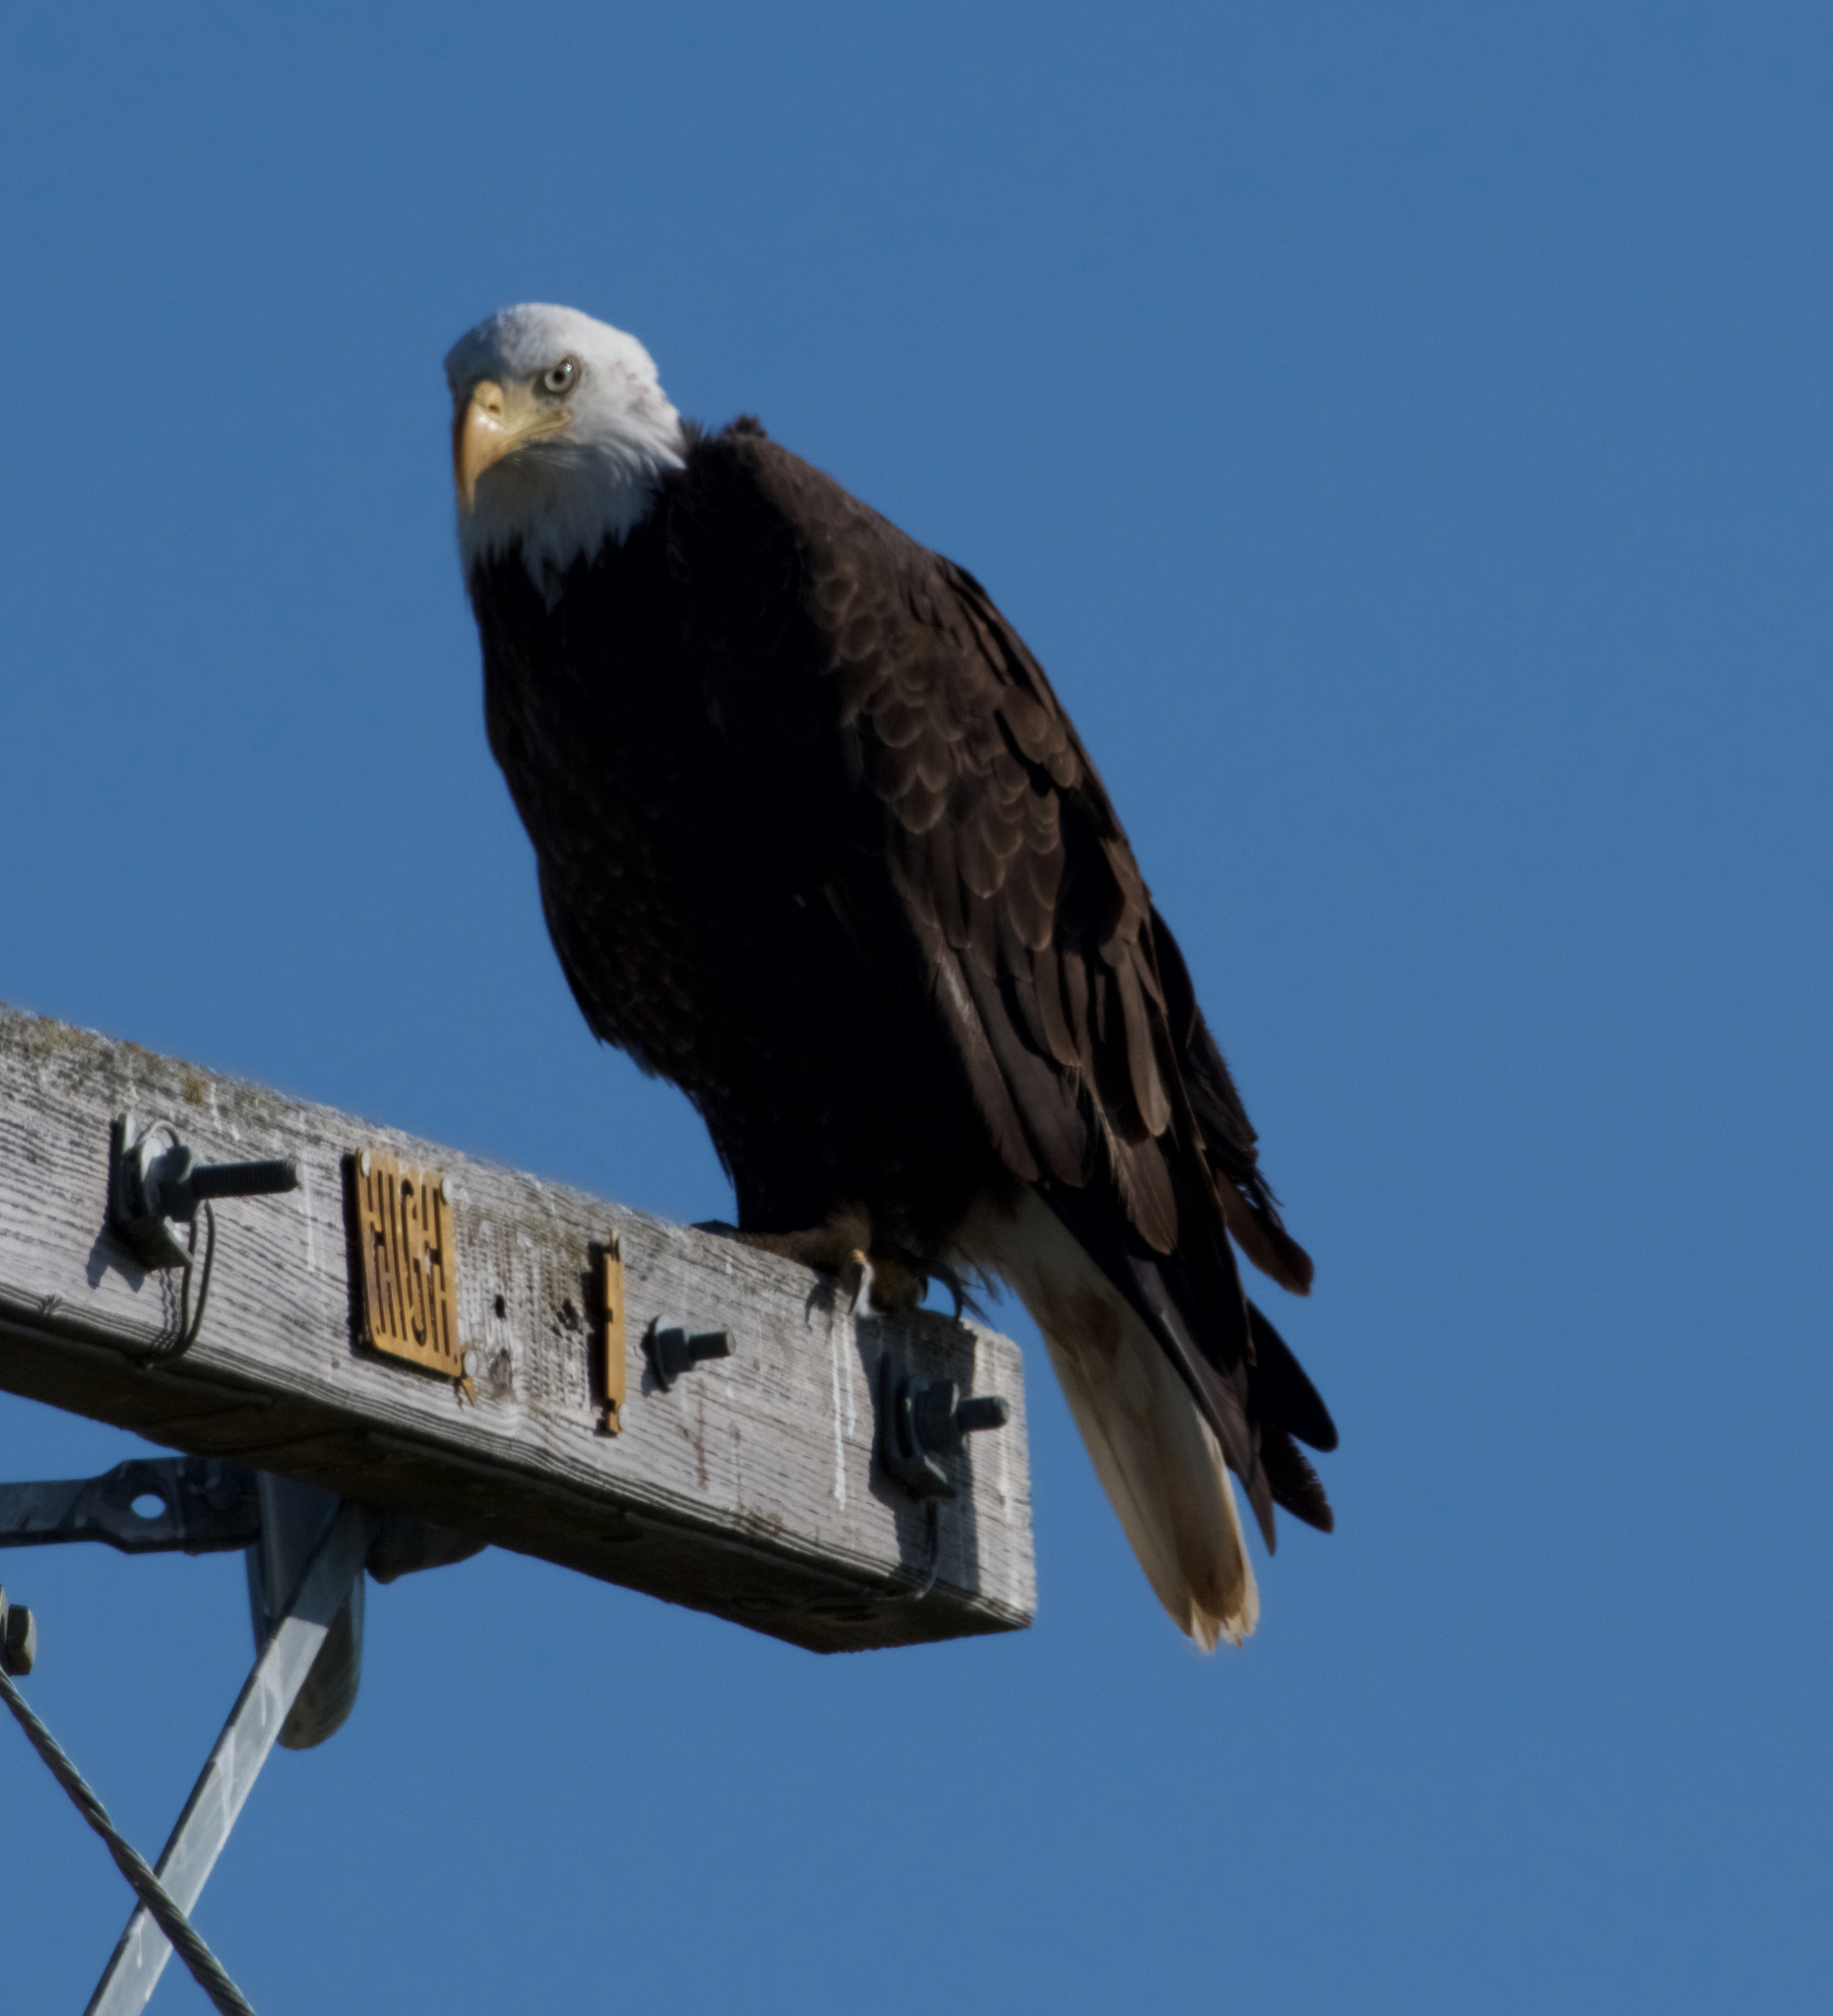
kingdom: Animalia
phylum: Chordata
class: Aves
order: Accipitriformes
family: Accipitridae
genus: Haliaeetus
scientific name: Haliaeetus leucocephalus
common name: Bald eagle
